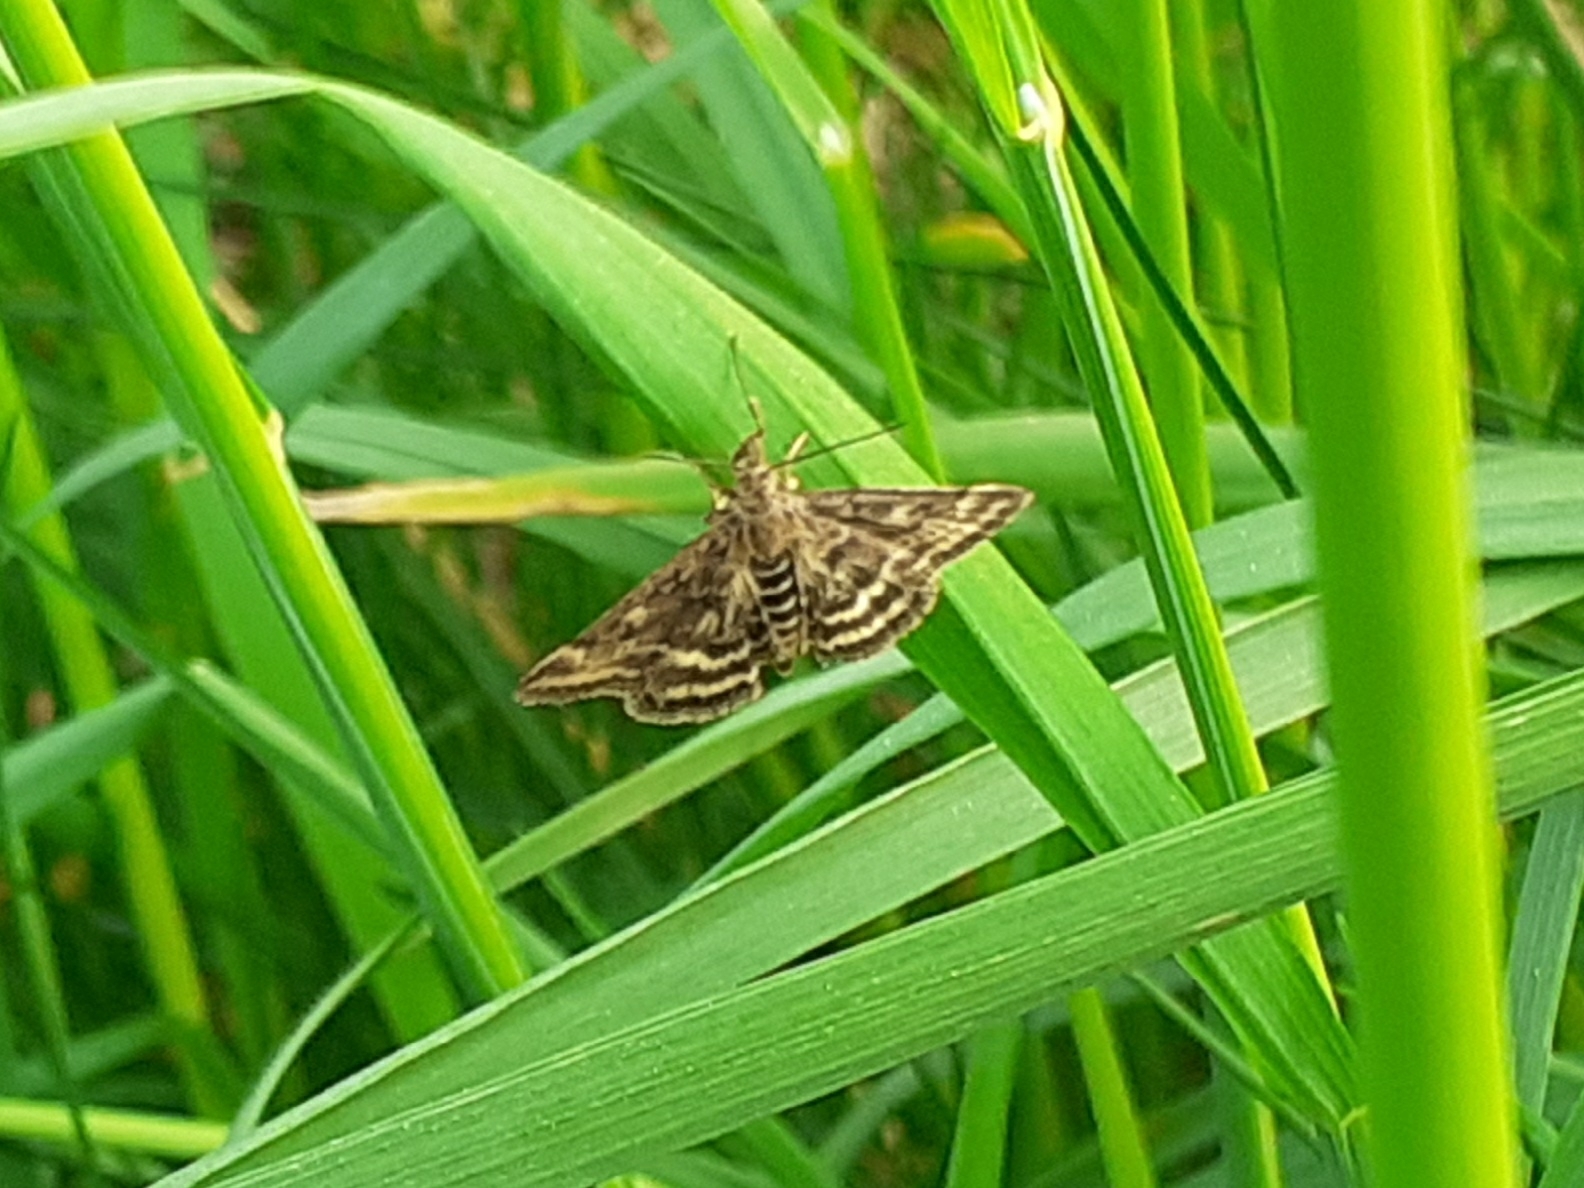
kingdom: Animalia
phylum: Arthropoda
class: Insecta
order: Lepidoptera
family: Crambidae
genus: Pyrausta
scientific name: Pyrausta despicata
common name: Straw-barred pearl
